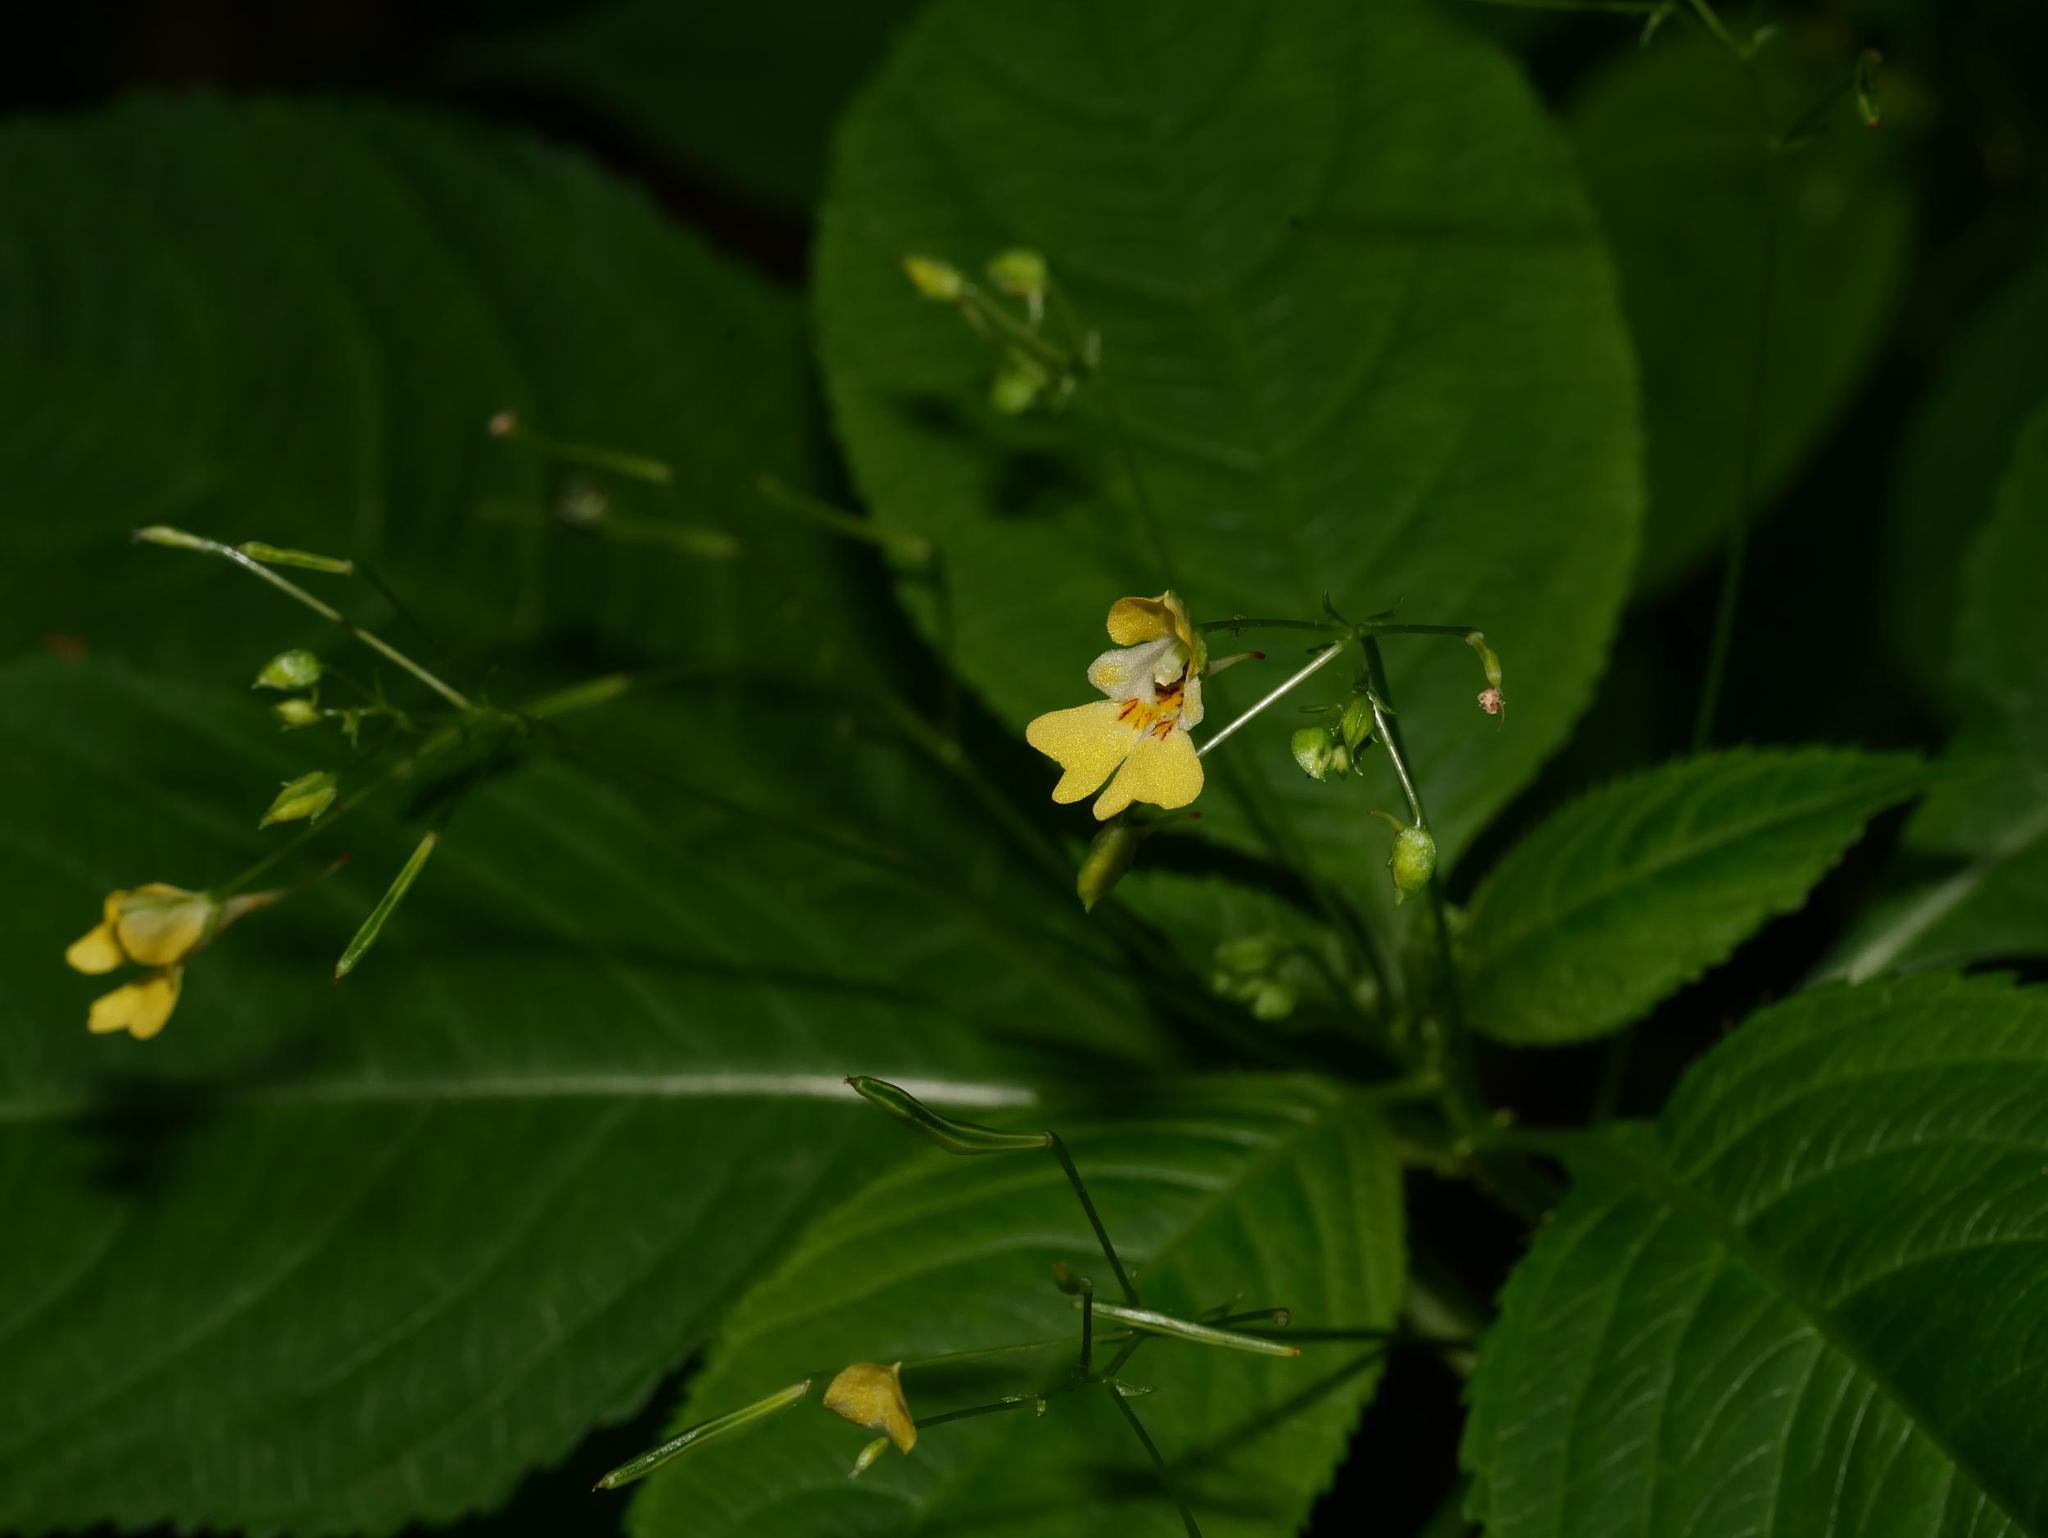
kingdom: Plantae
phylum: Tracheophyta
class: Magnoliopsida
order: Ericales
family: Balsaminaceae
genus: Impatiens
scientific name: Impatiens parviflora
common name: Small balsam
